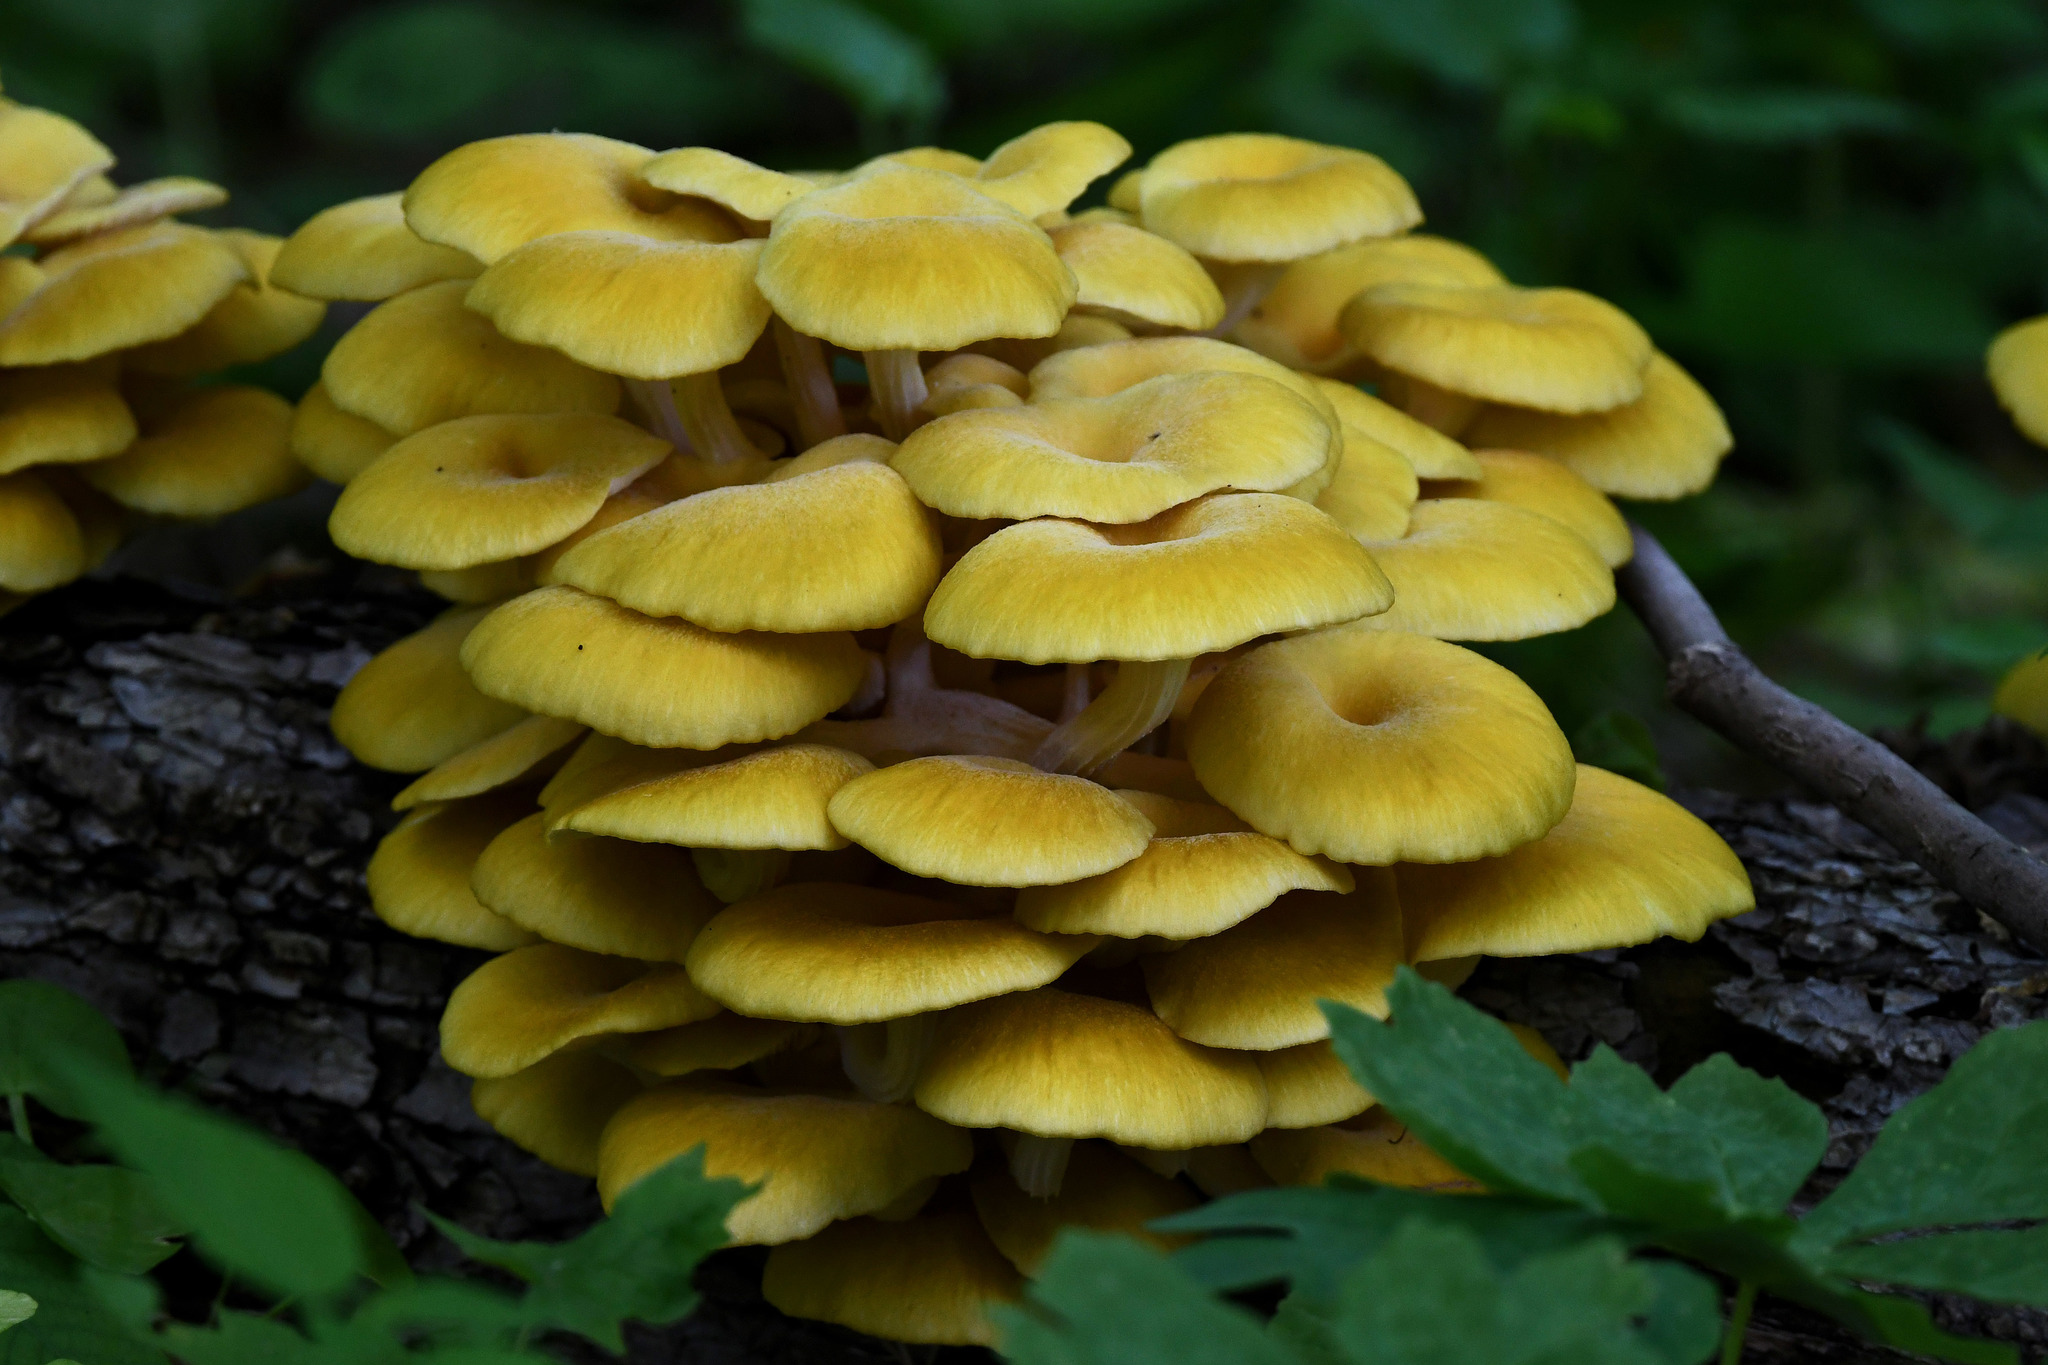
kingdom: Fungi
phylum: Basidiomycota
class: Agaricomycetes
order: Agaricales
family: Pleurotaceae
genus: Pleurotus
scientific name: Pleurotus citrinopileatus
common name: Golden oyster mushroom
